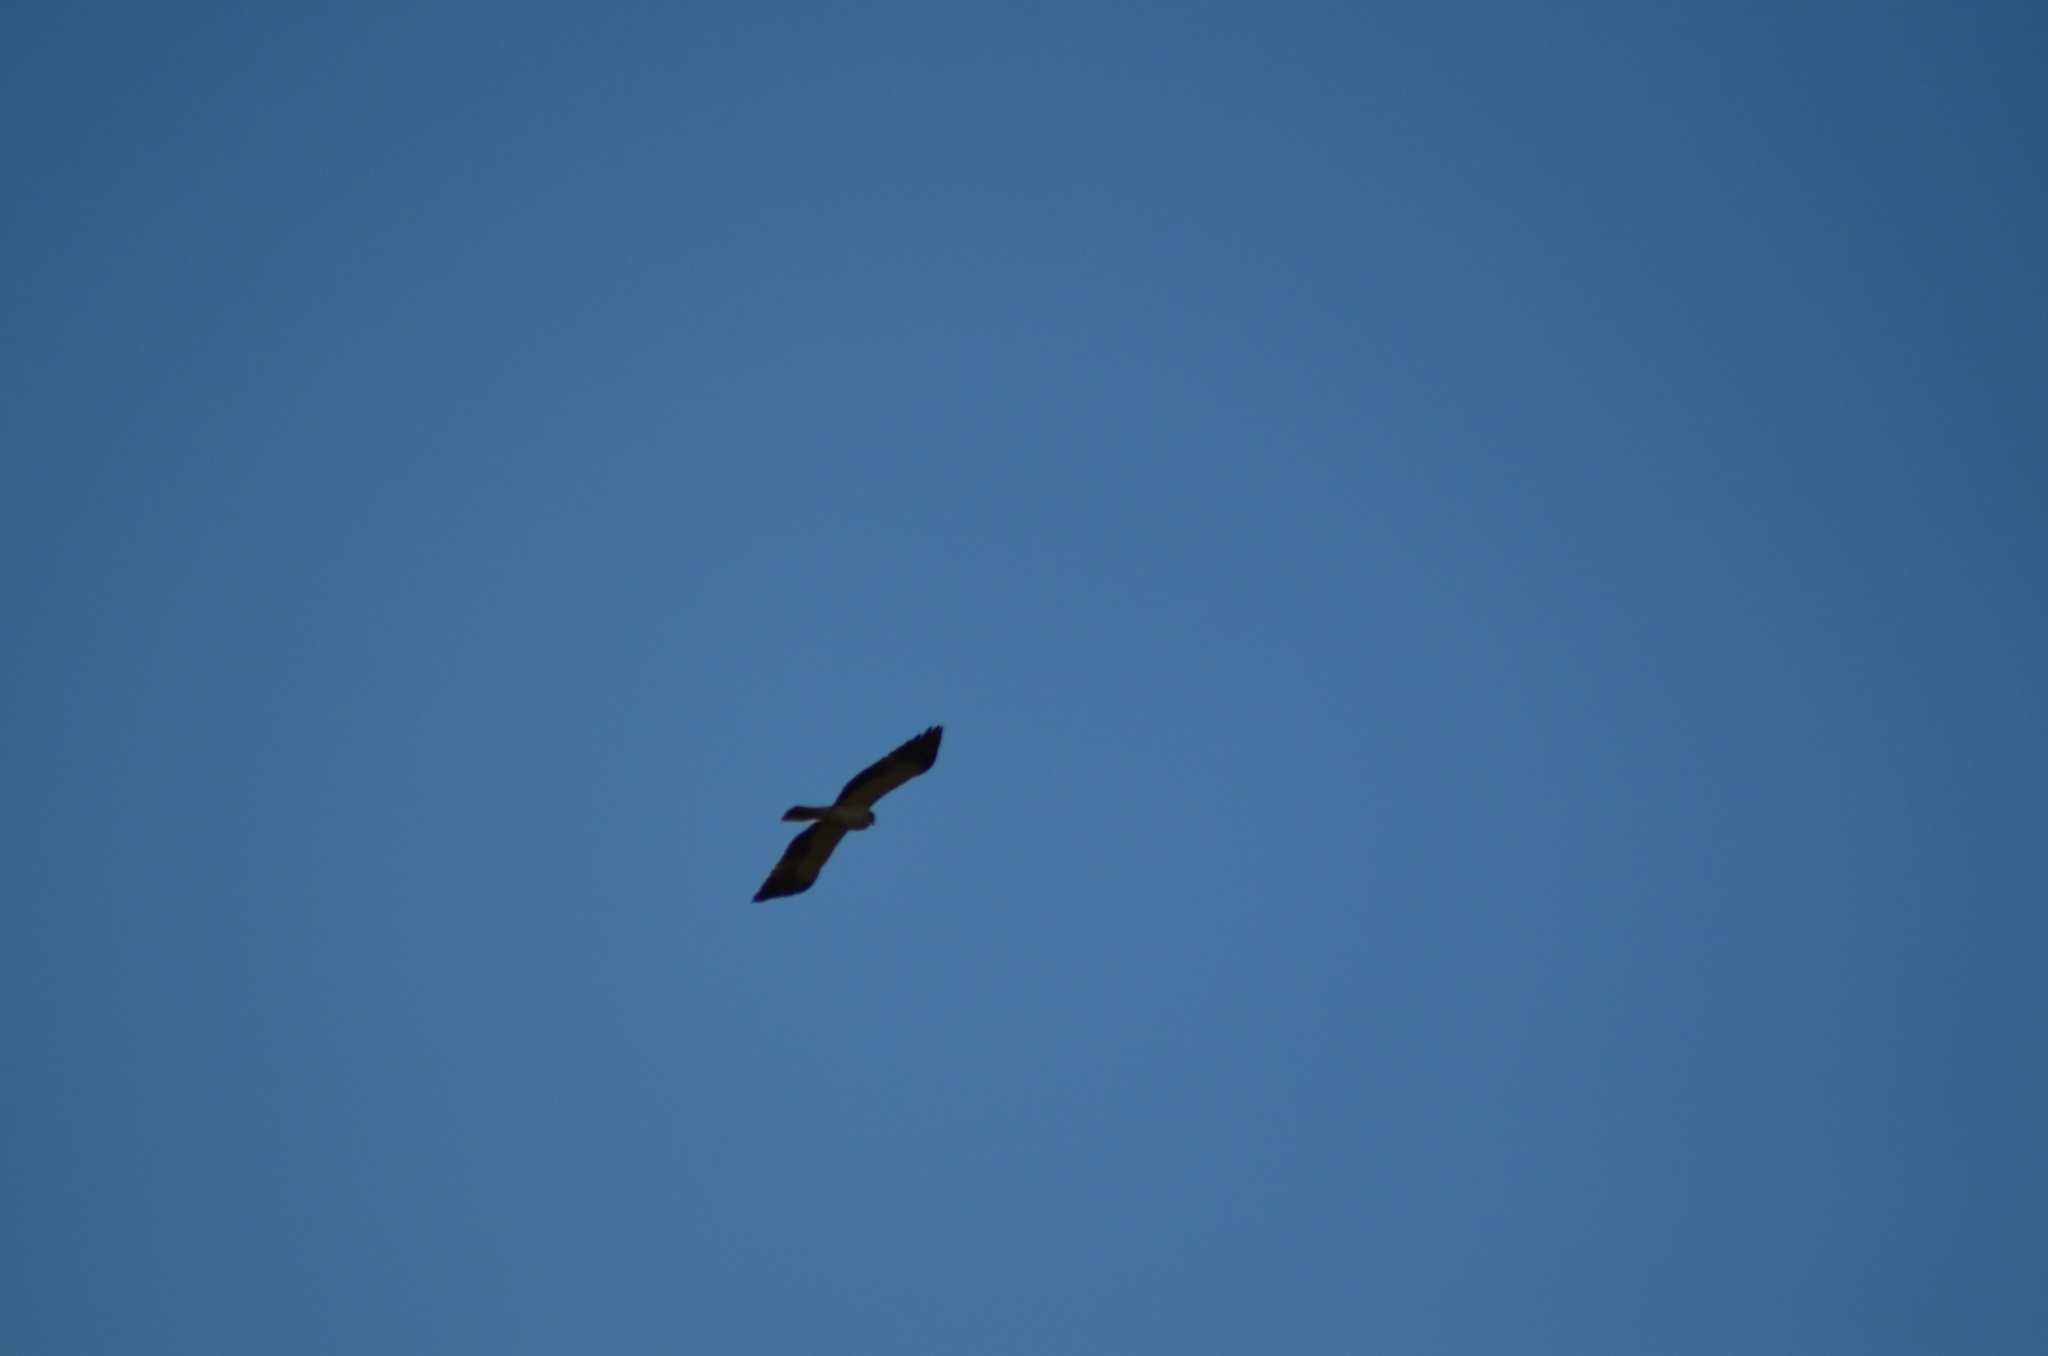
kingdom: Animalia
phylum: Chordata
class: Aves
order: Accipitriformes
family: Accipitridae
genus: Hieraaetus
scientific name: Hieraaetus pennatus
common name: Booted eagle
